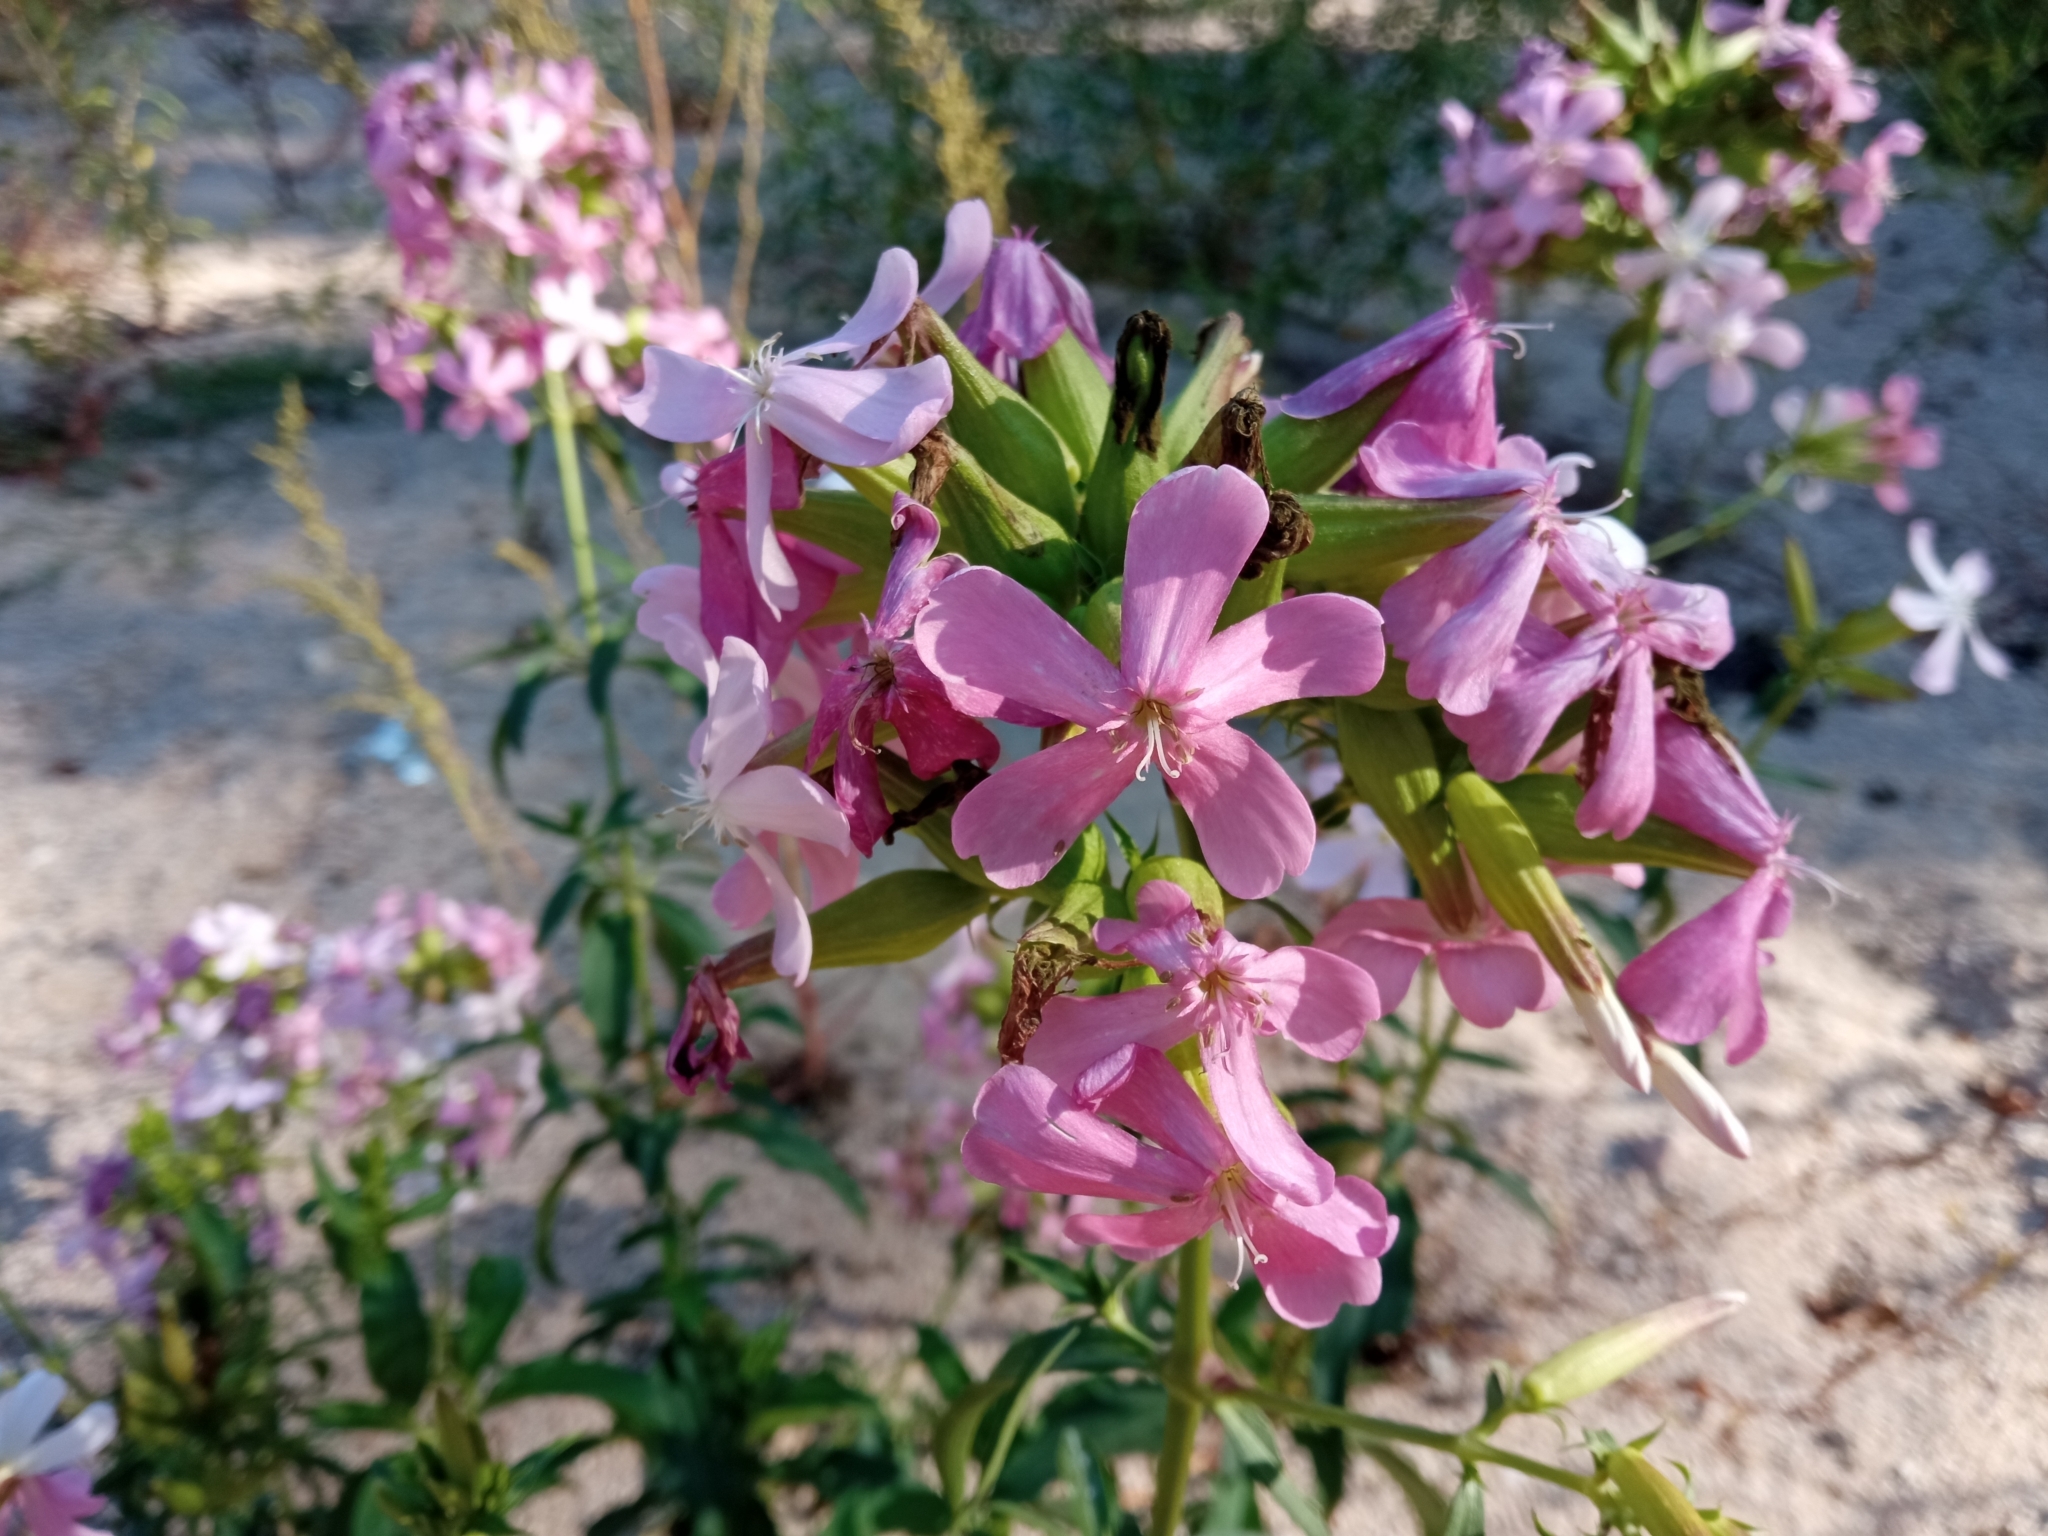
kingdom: Plantae
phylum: Tracheophyta
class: Magnoliopsida
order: Caryophyllales
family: Caryophyllaceae
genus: Saponaria
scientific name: Saponaria officinalis
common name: Soapwort
